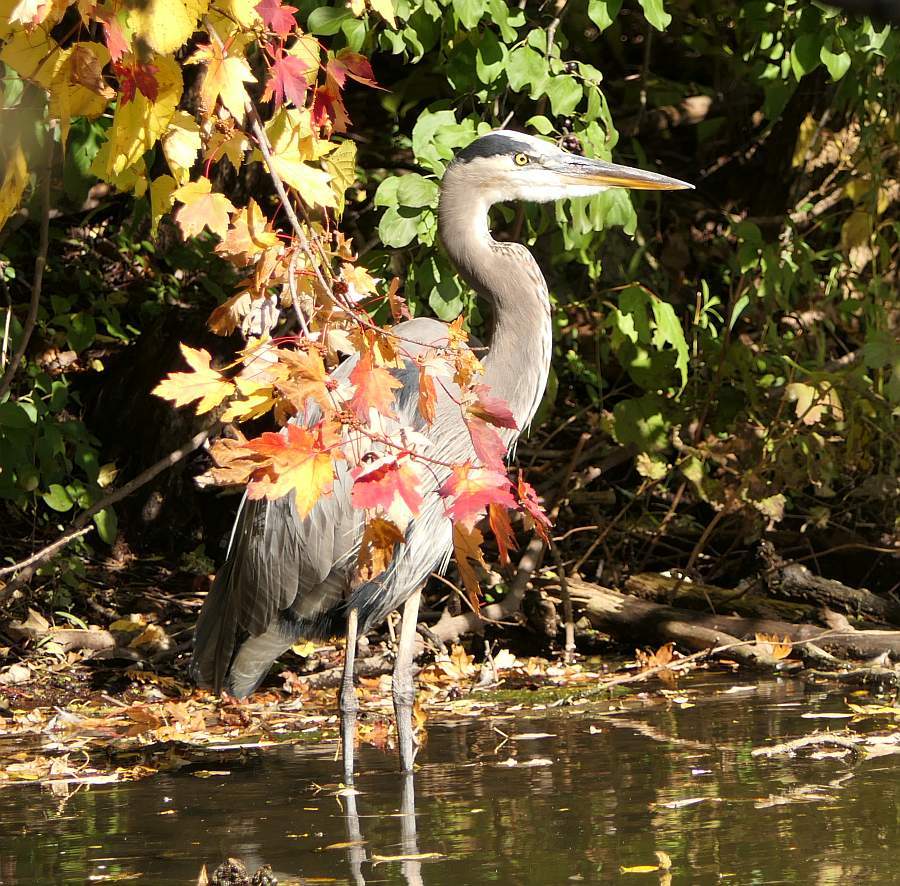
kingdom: Animalia
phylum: Chordata
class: Aves
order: Pelecaniformes
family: Ardeidae
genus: Ardea
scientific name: Ardea herodias
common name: Great blue heron
